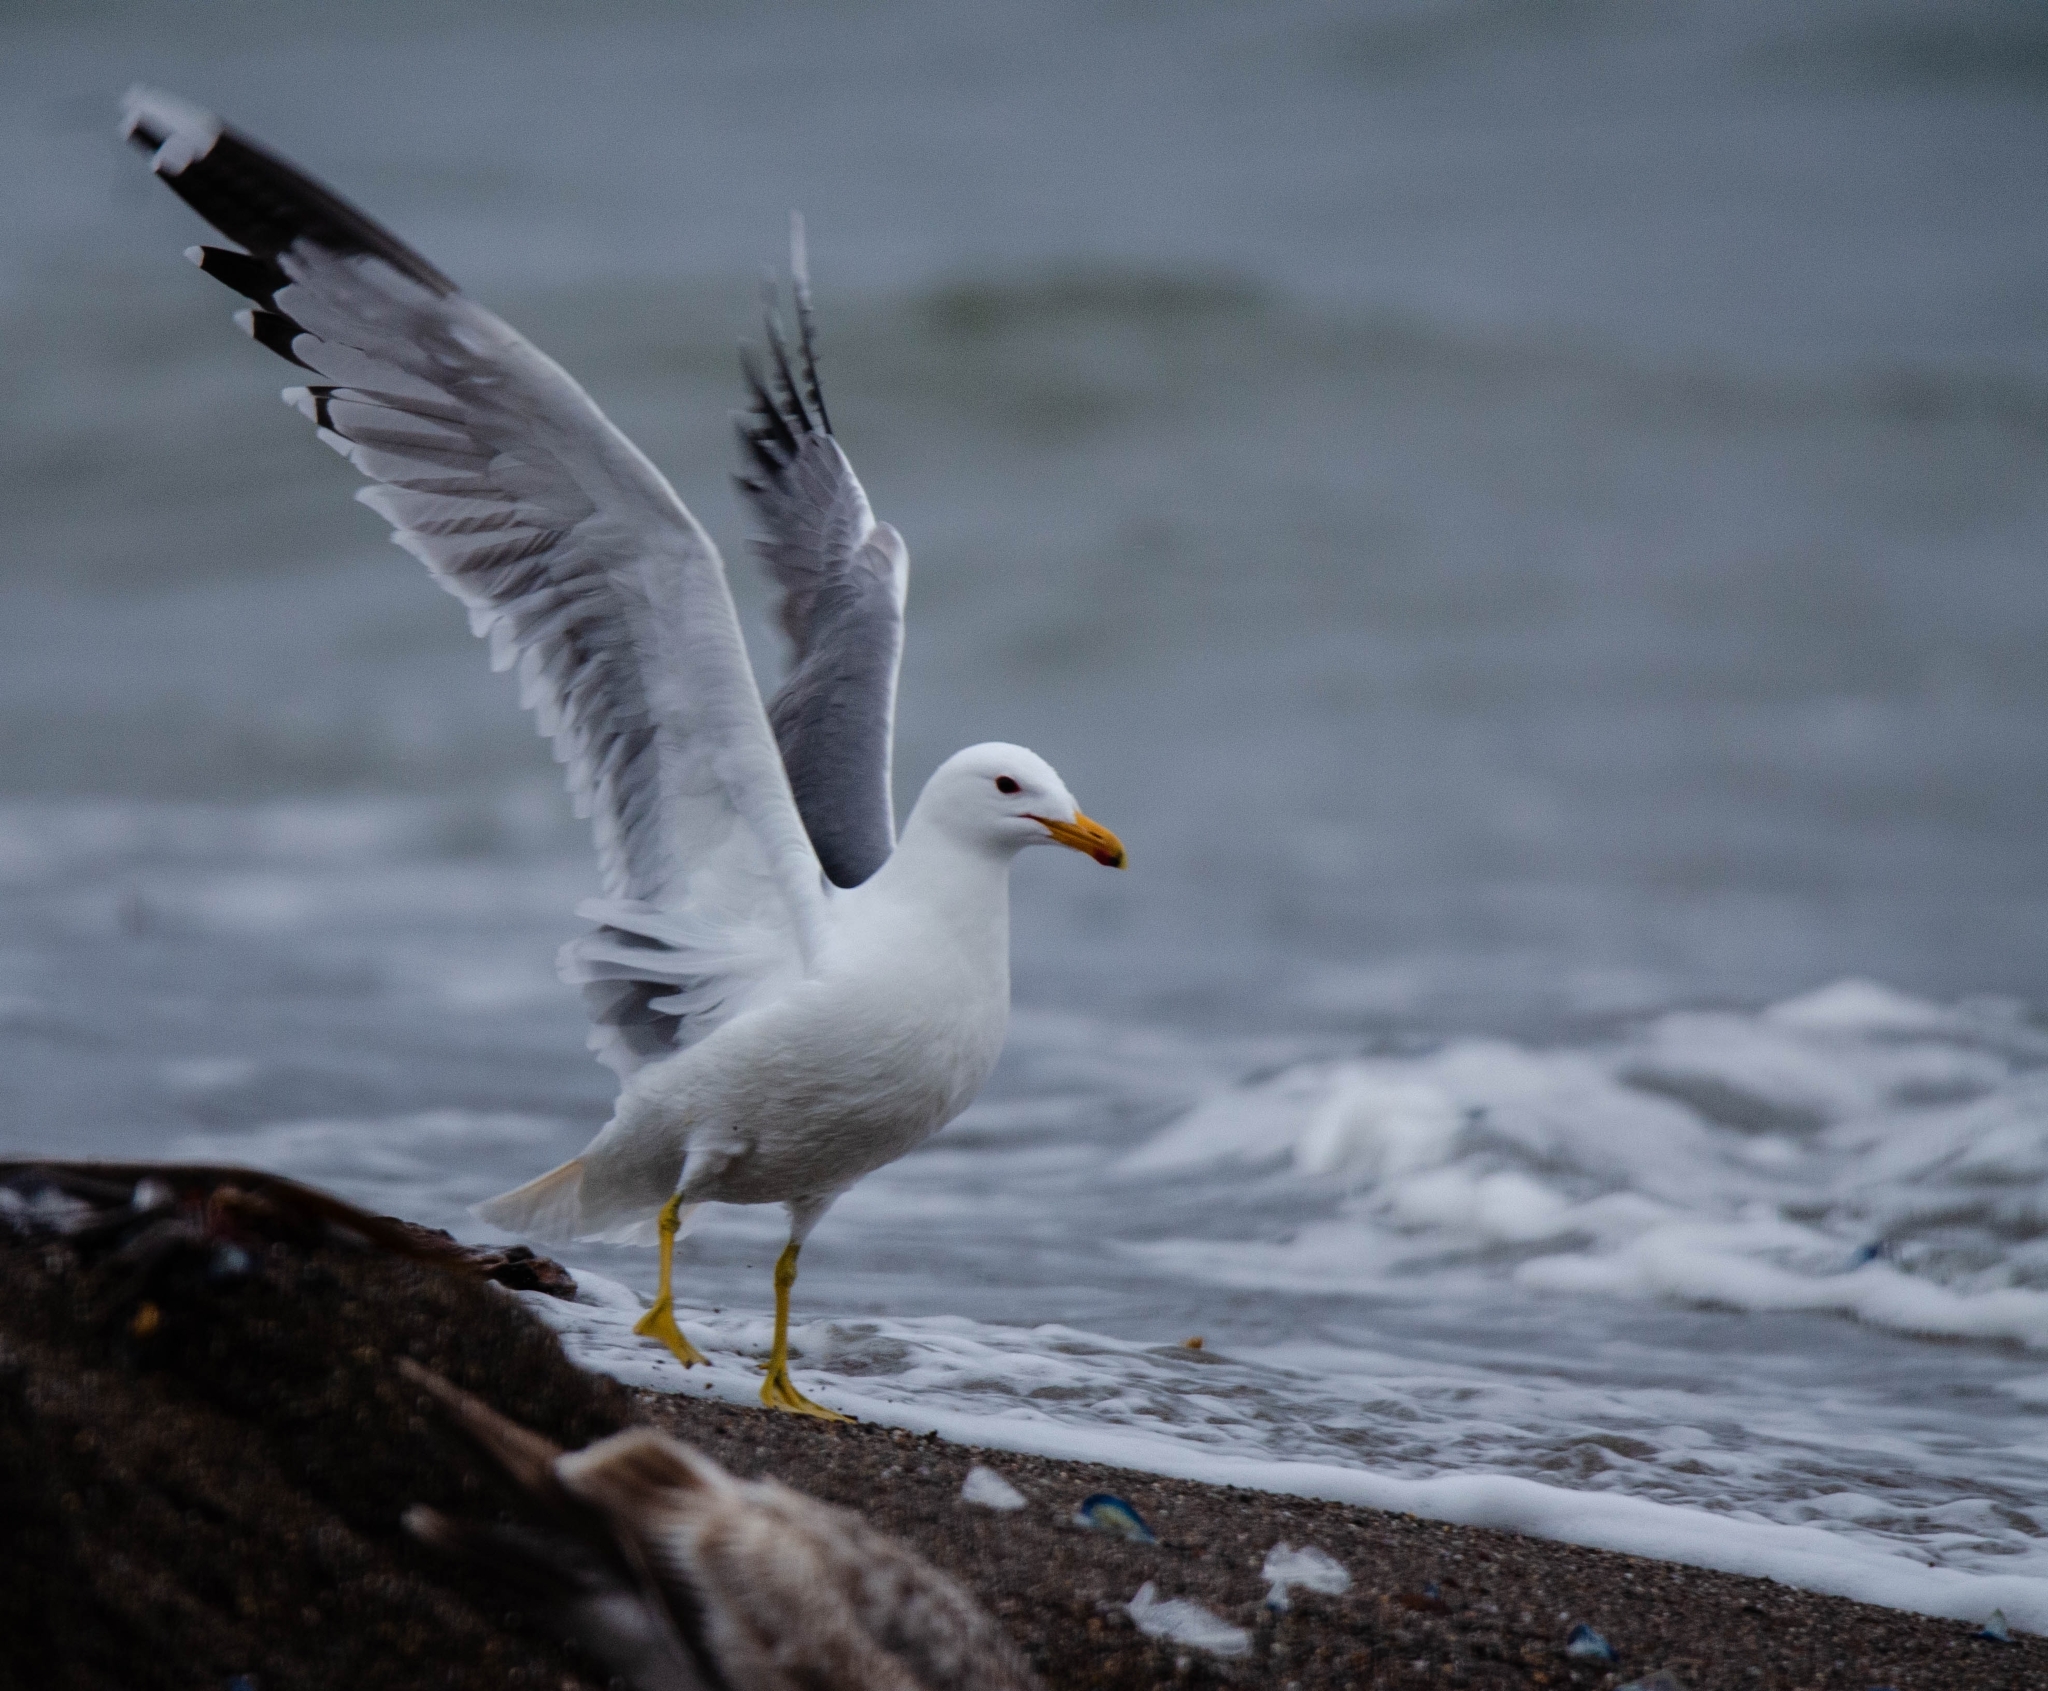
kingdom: Animalia
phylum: Chordata
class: Aves
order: Charadriiformes
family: Laridae
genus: Larus
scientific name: Larus californicus
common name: California gull
